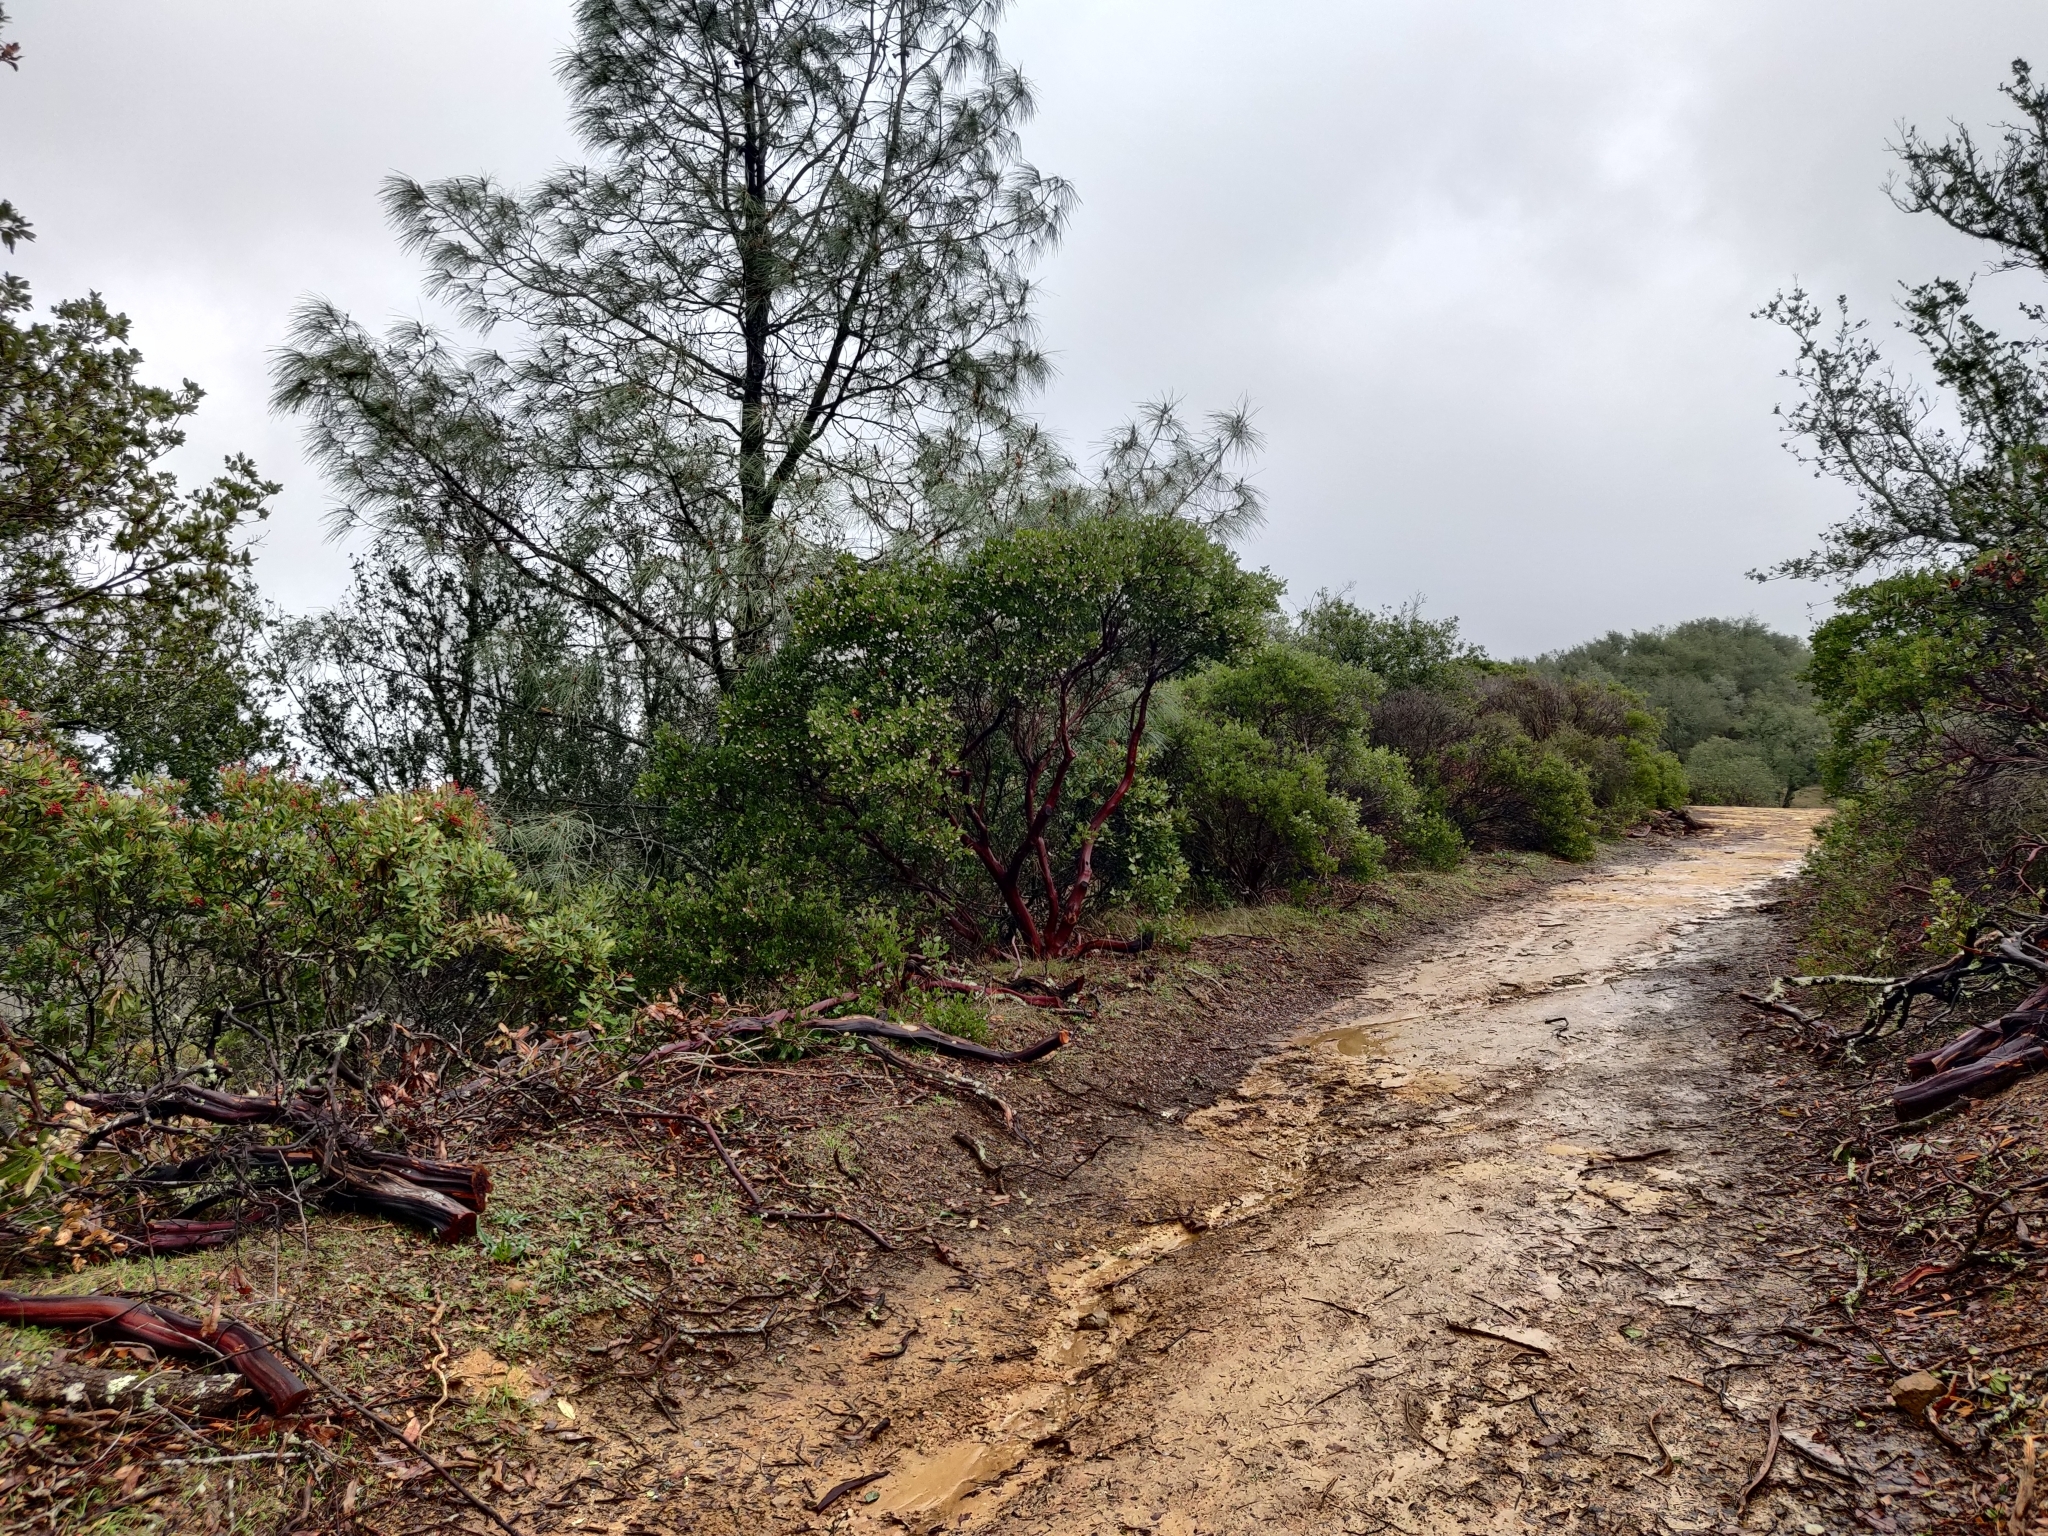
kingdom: Plantae
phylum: Tracheophyta
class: Magnoliopsida
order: Ericales
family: Ericaceae
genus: Arctostaphylos
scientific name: Arctostaphylos manzanita
